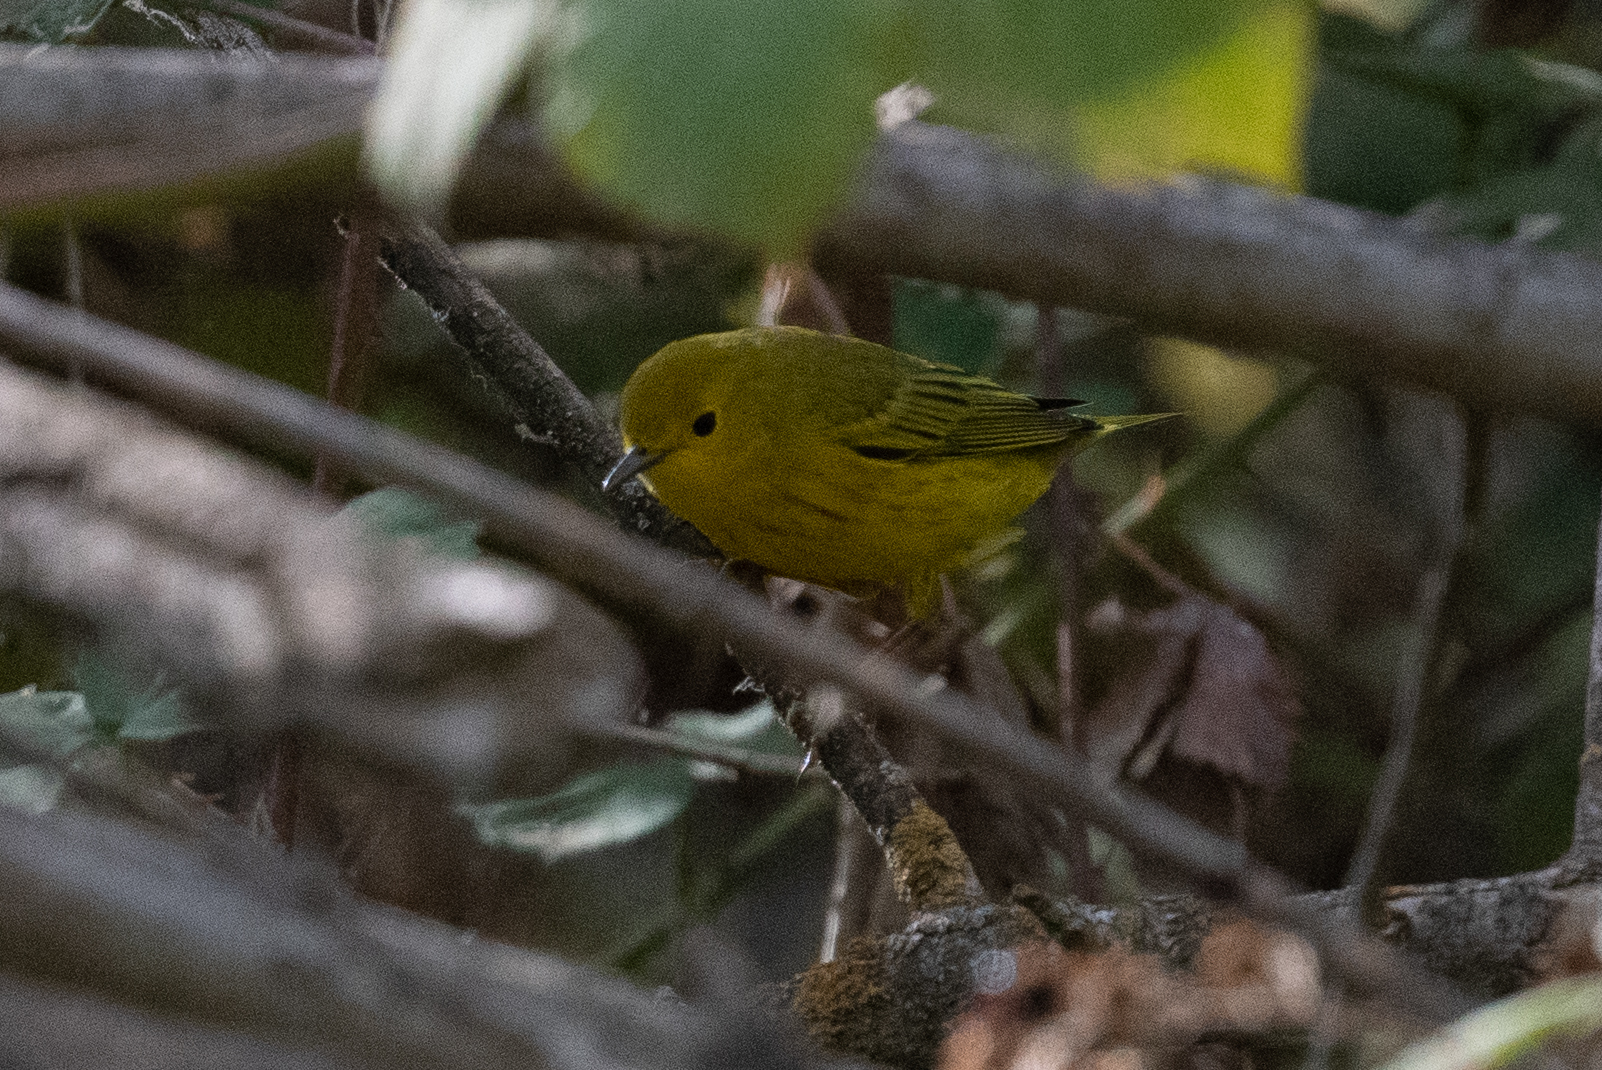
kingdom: Animalia
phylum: Chordata
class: Aves
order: Passeriformes
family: Parulidae
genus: Setophaga
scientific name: Setophaga petechia
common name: Yellow warbler
